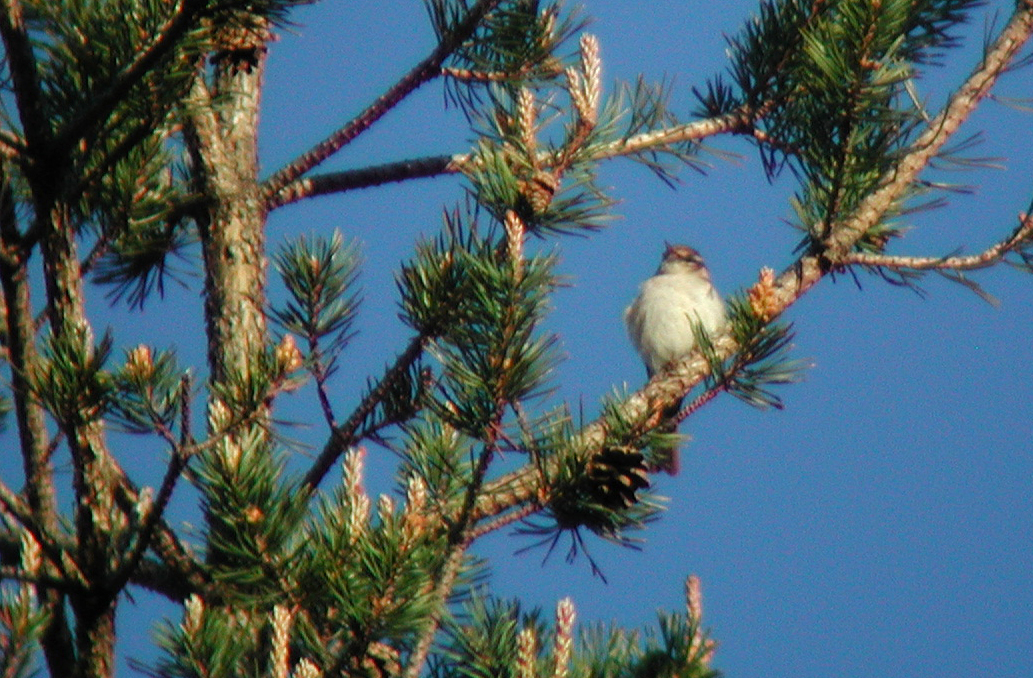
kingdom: Animalia
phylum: Chordata
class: Aves
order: Passeriformes
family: Phylloscopidae
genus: Phylloscopus
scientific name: Phylloscopus bonelli
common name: Western bonelli's warbler
